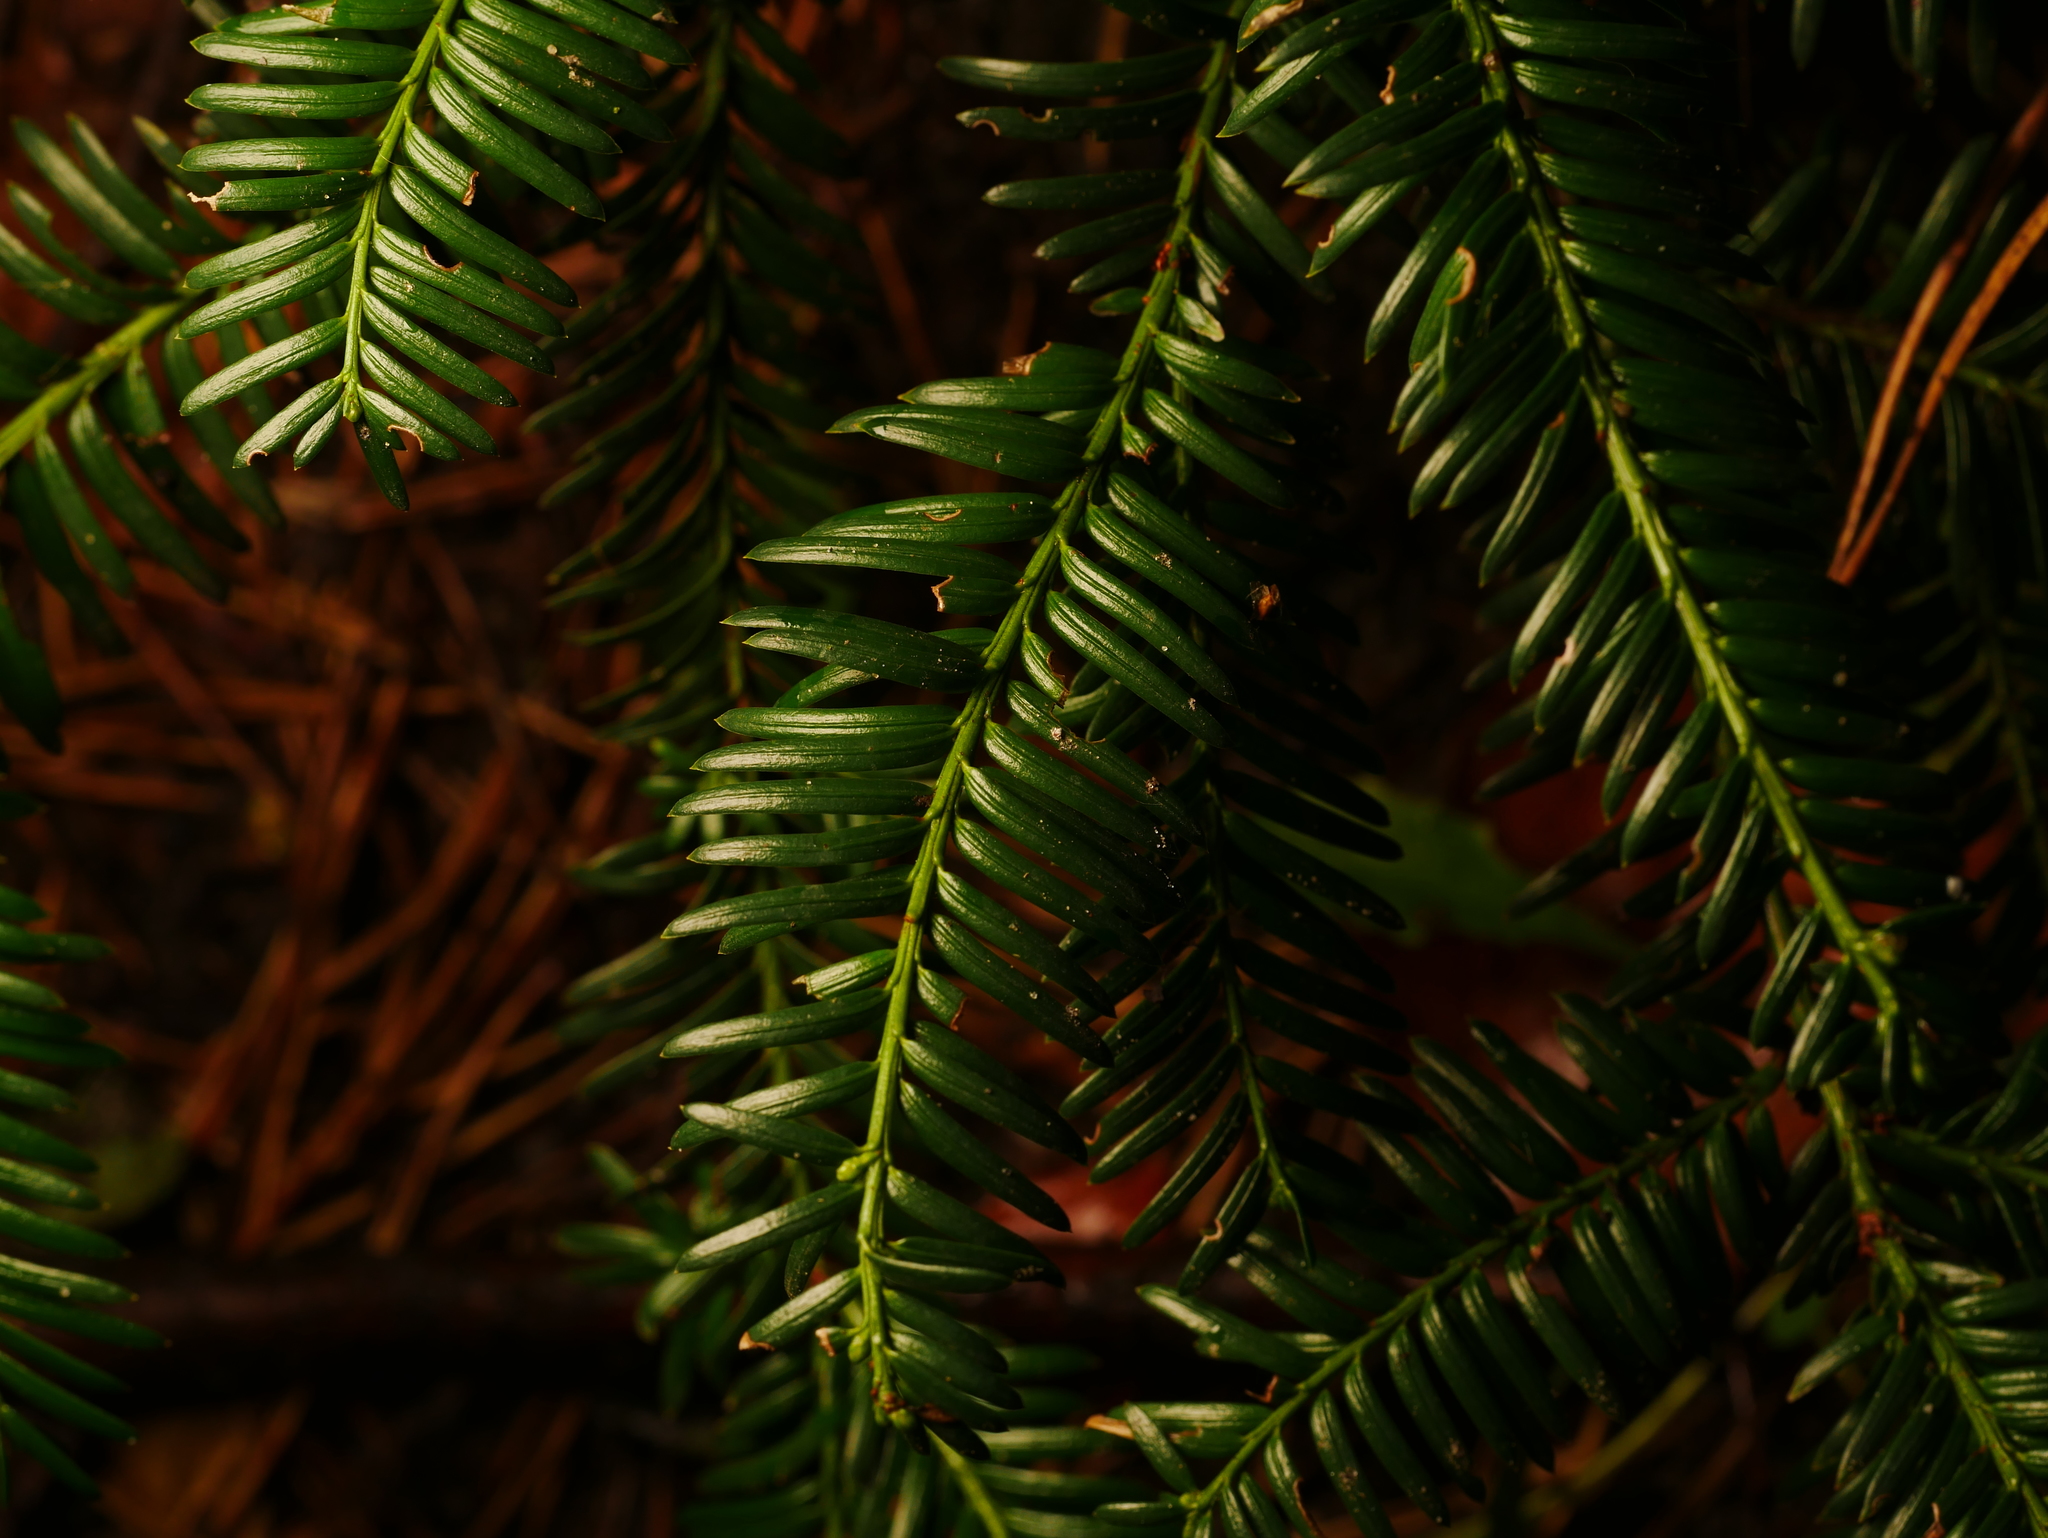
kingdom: Plantae
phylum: Tracheophyta
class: Pinopsida
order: Pinales
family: Taxaceae
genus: Taxus
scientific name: Taxus baccata
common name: Yew
